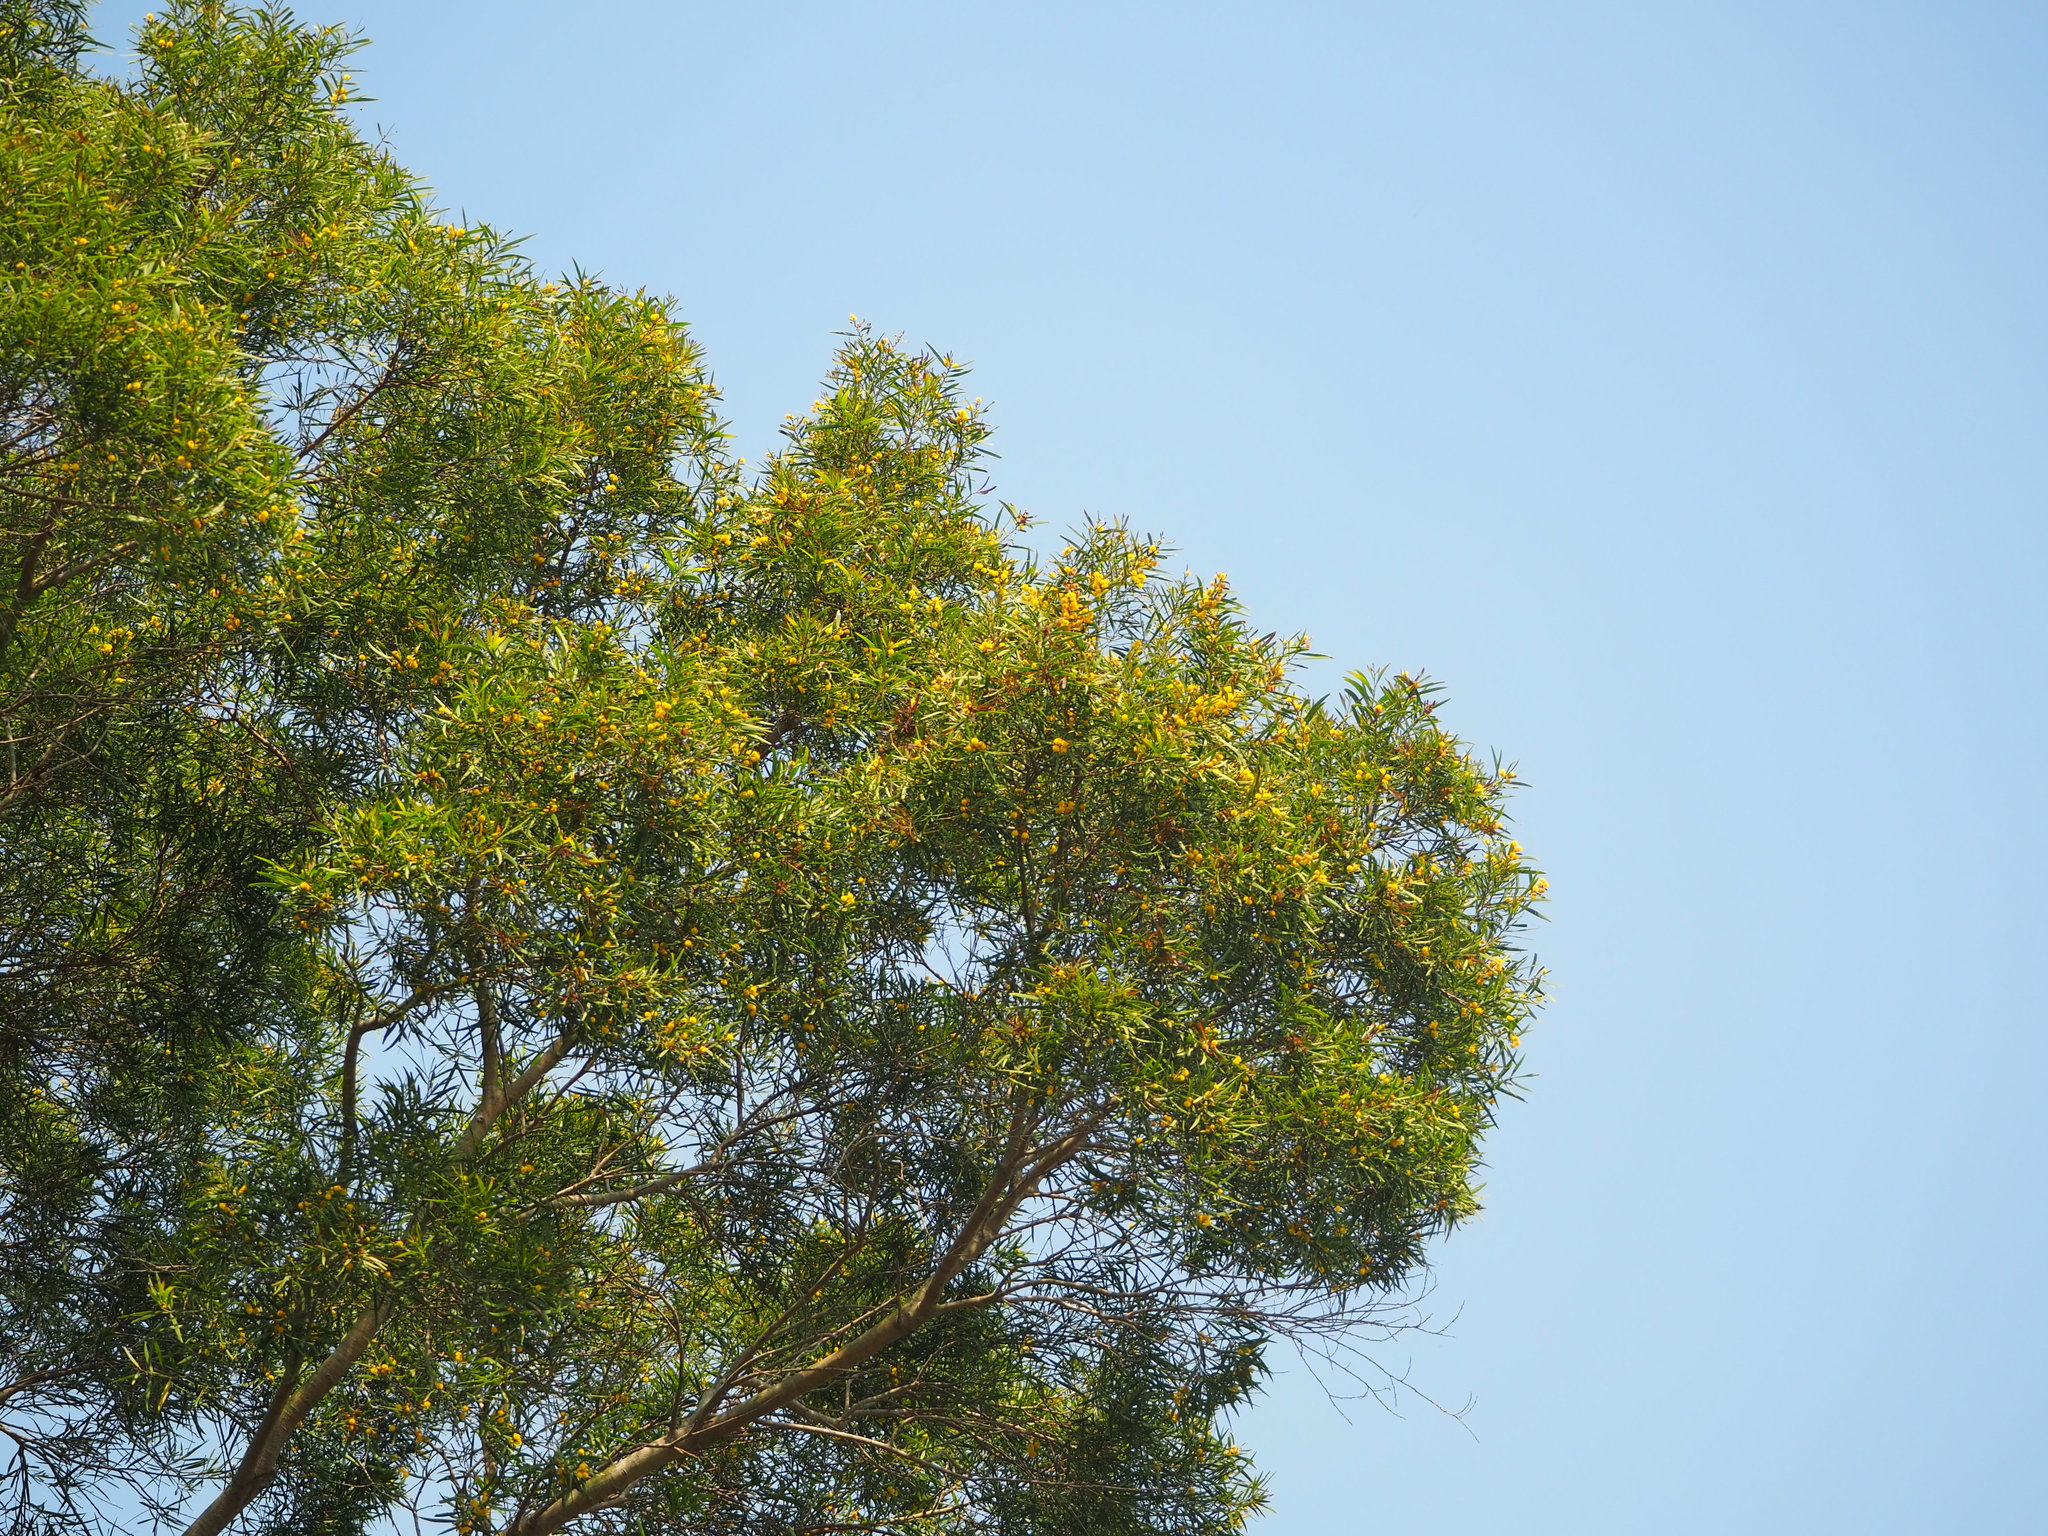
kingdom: Plantae
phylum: Tracheophyta
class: Magnoliopsida
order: Fabales
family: Fabaceae
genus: Acacia
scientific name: Acacia confusa
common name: Formosan koa
